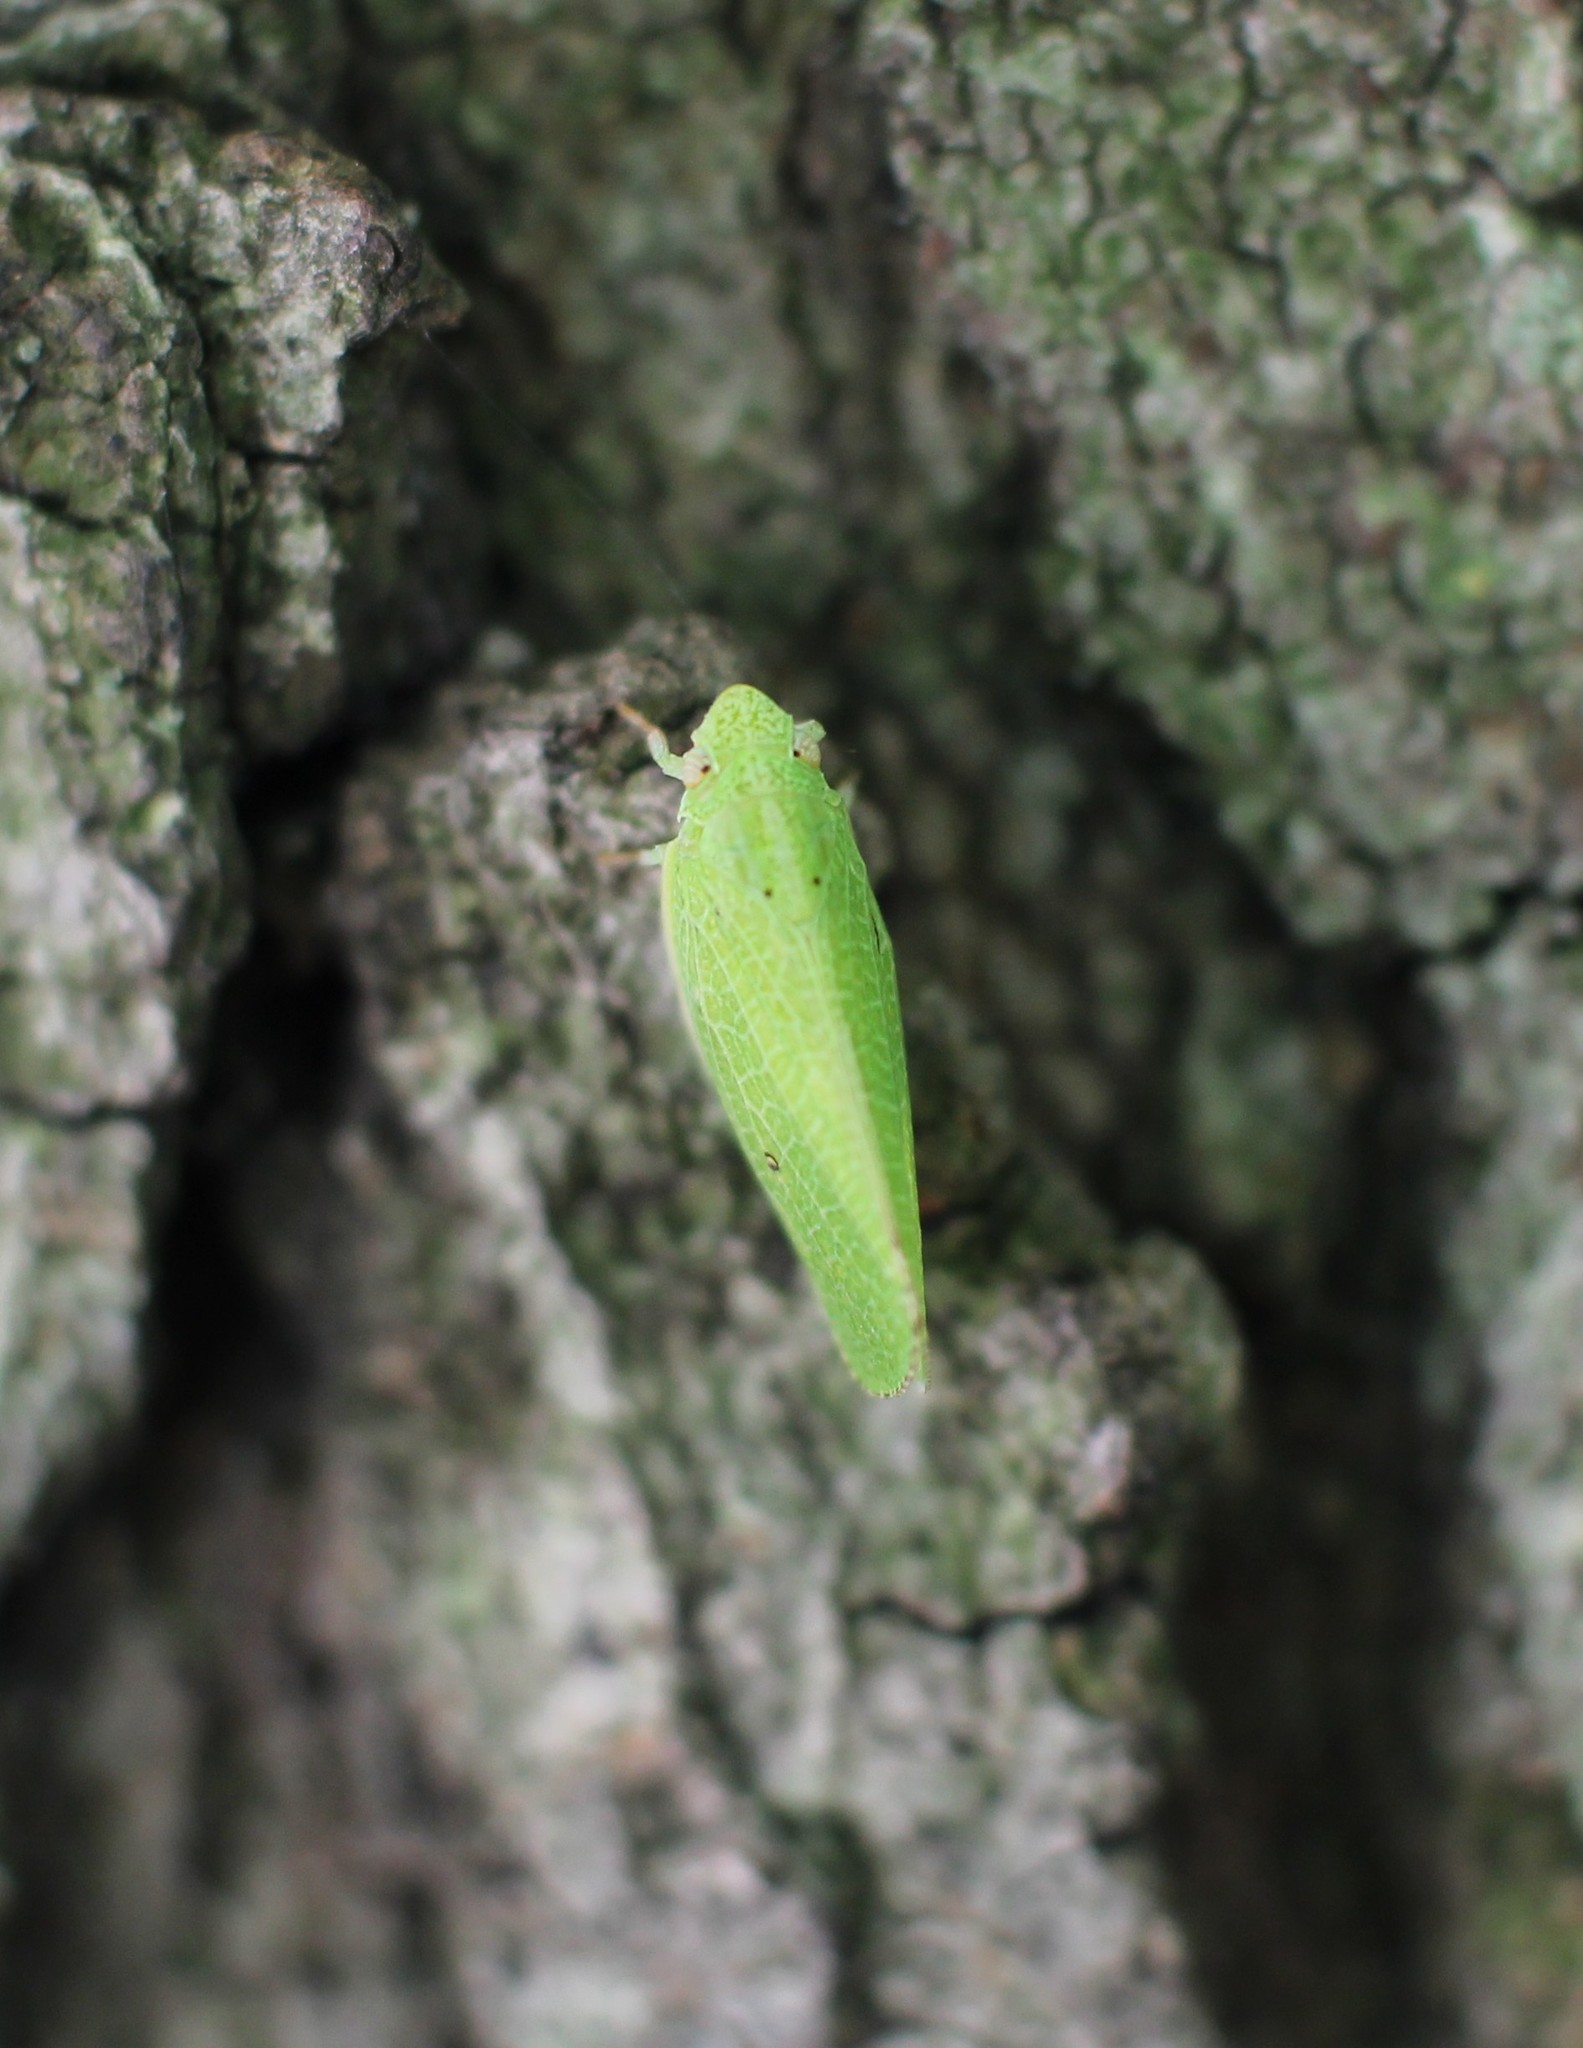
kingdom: Animalia
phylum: Arthropoda
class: Insecta
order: Hemiptera
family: Acanaloniidae
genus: Acanalonia
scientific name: Acanalonia conica
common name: Green cone-headed planthopper
